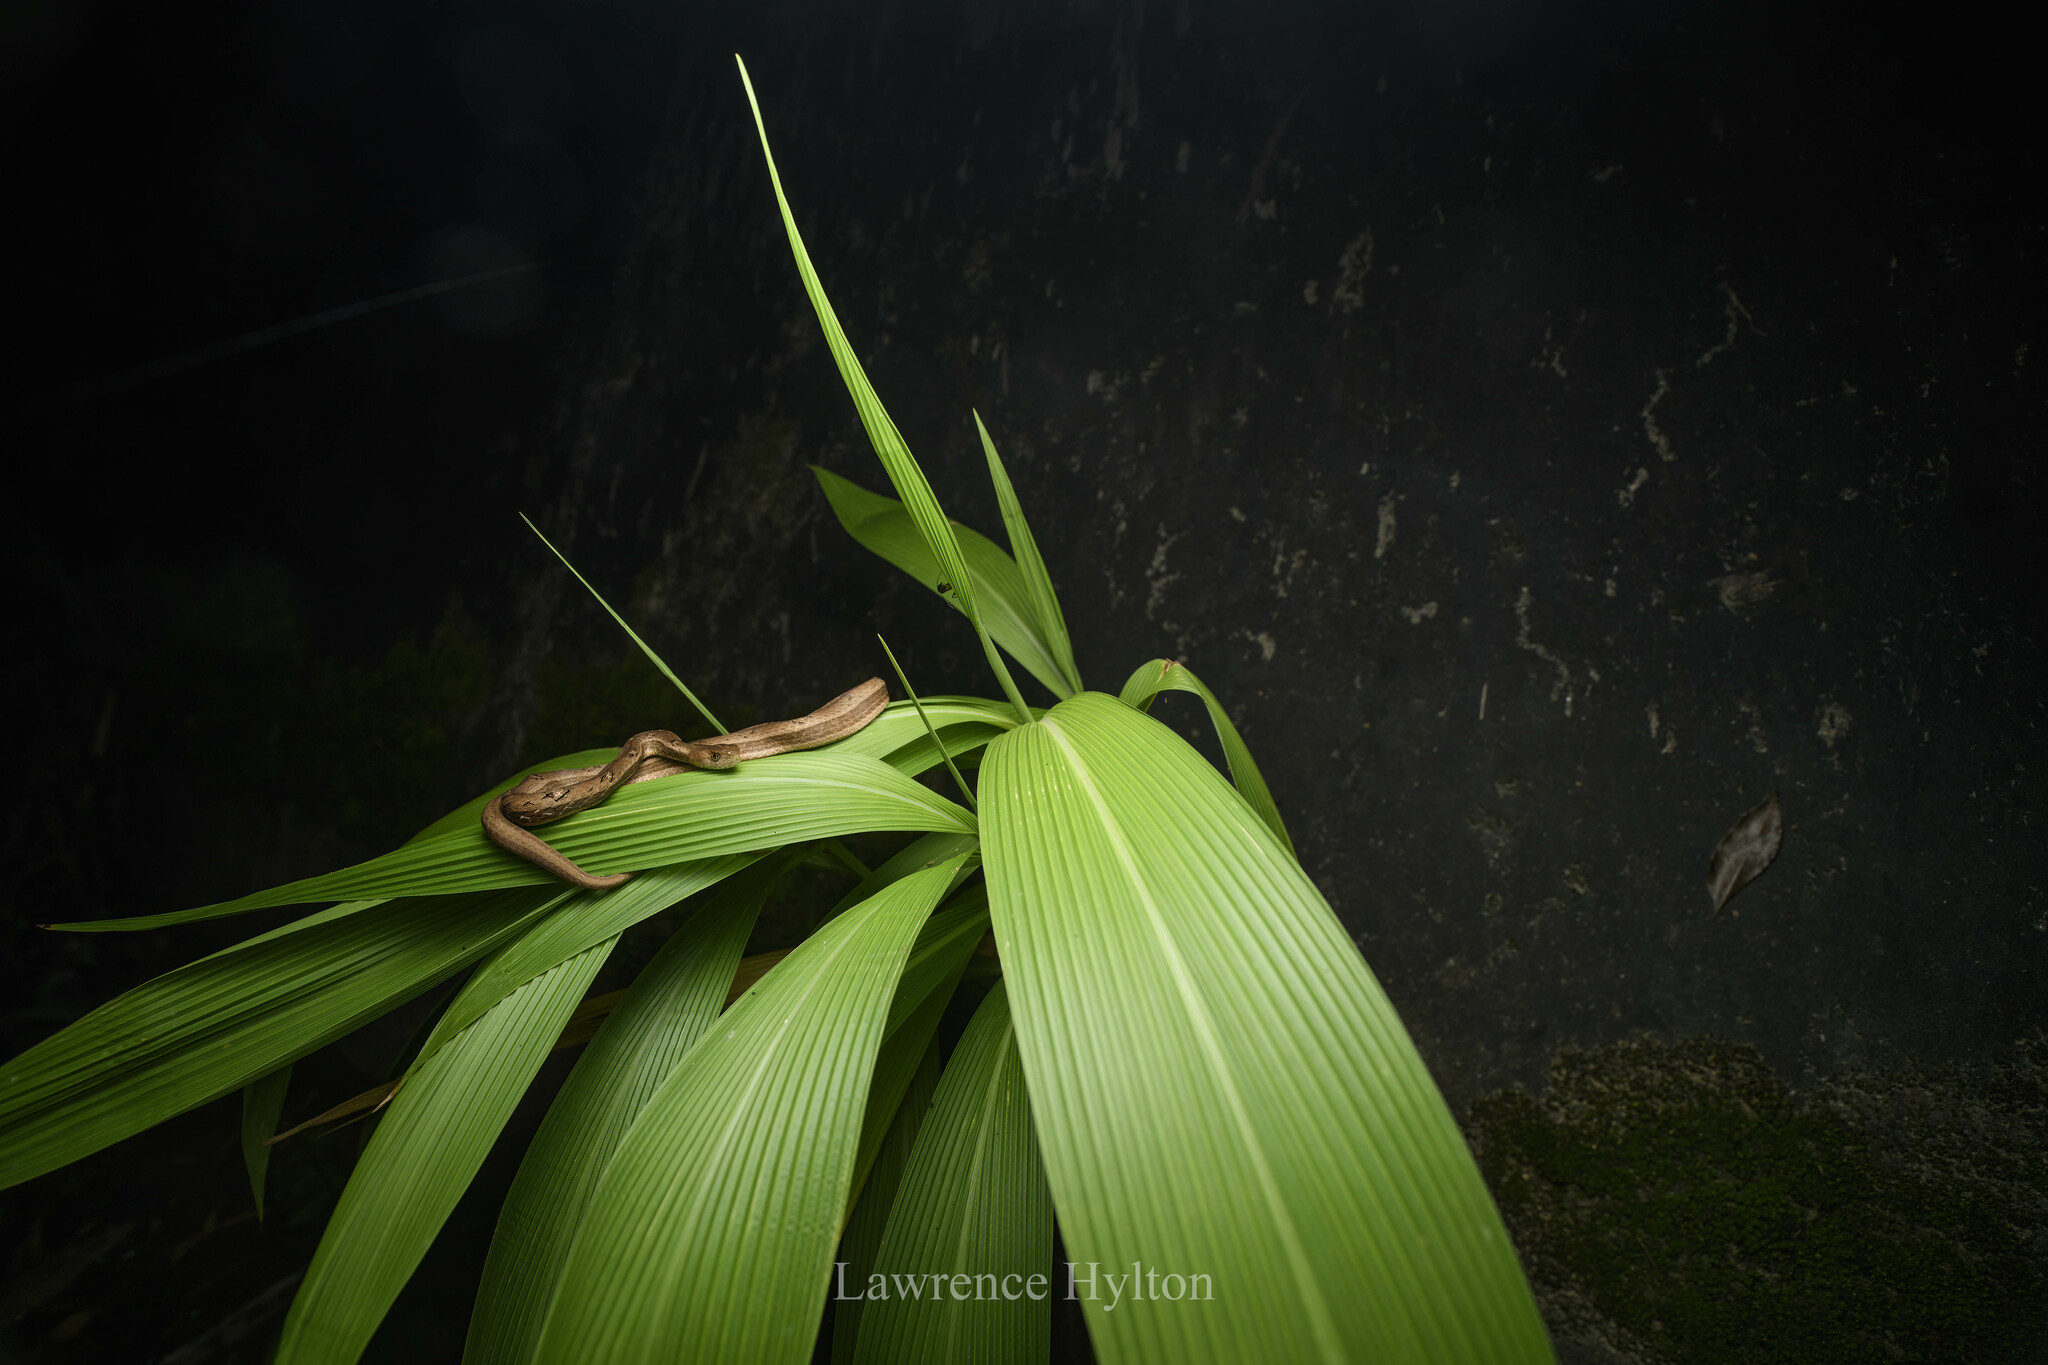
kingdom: Animalia
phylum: Chordata
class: Squamata
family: Pseudaspididae
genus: Psammodynastes
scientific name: Psammodynastes pulverulentus
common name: Common mock viper
